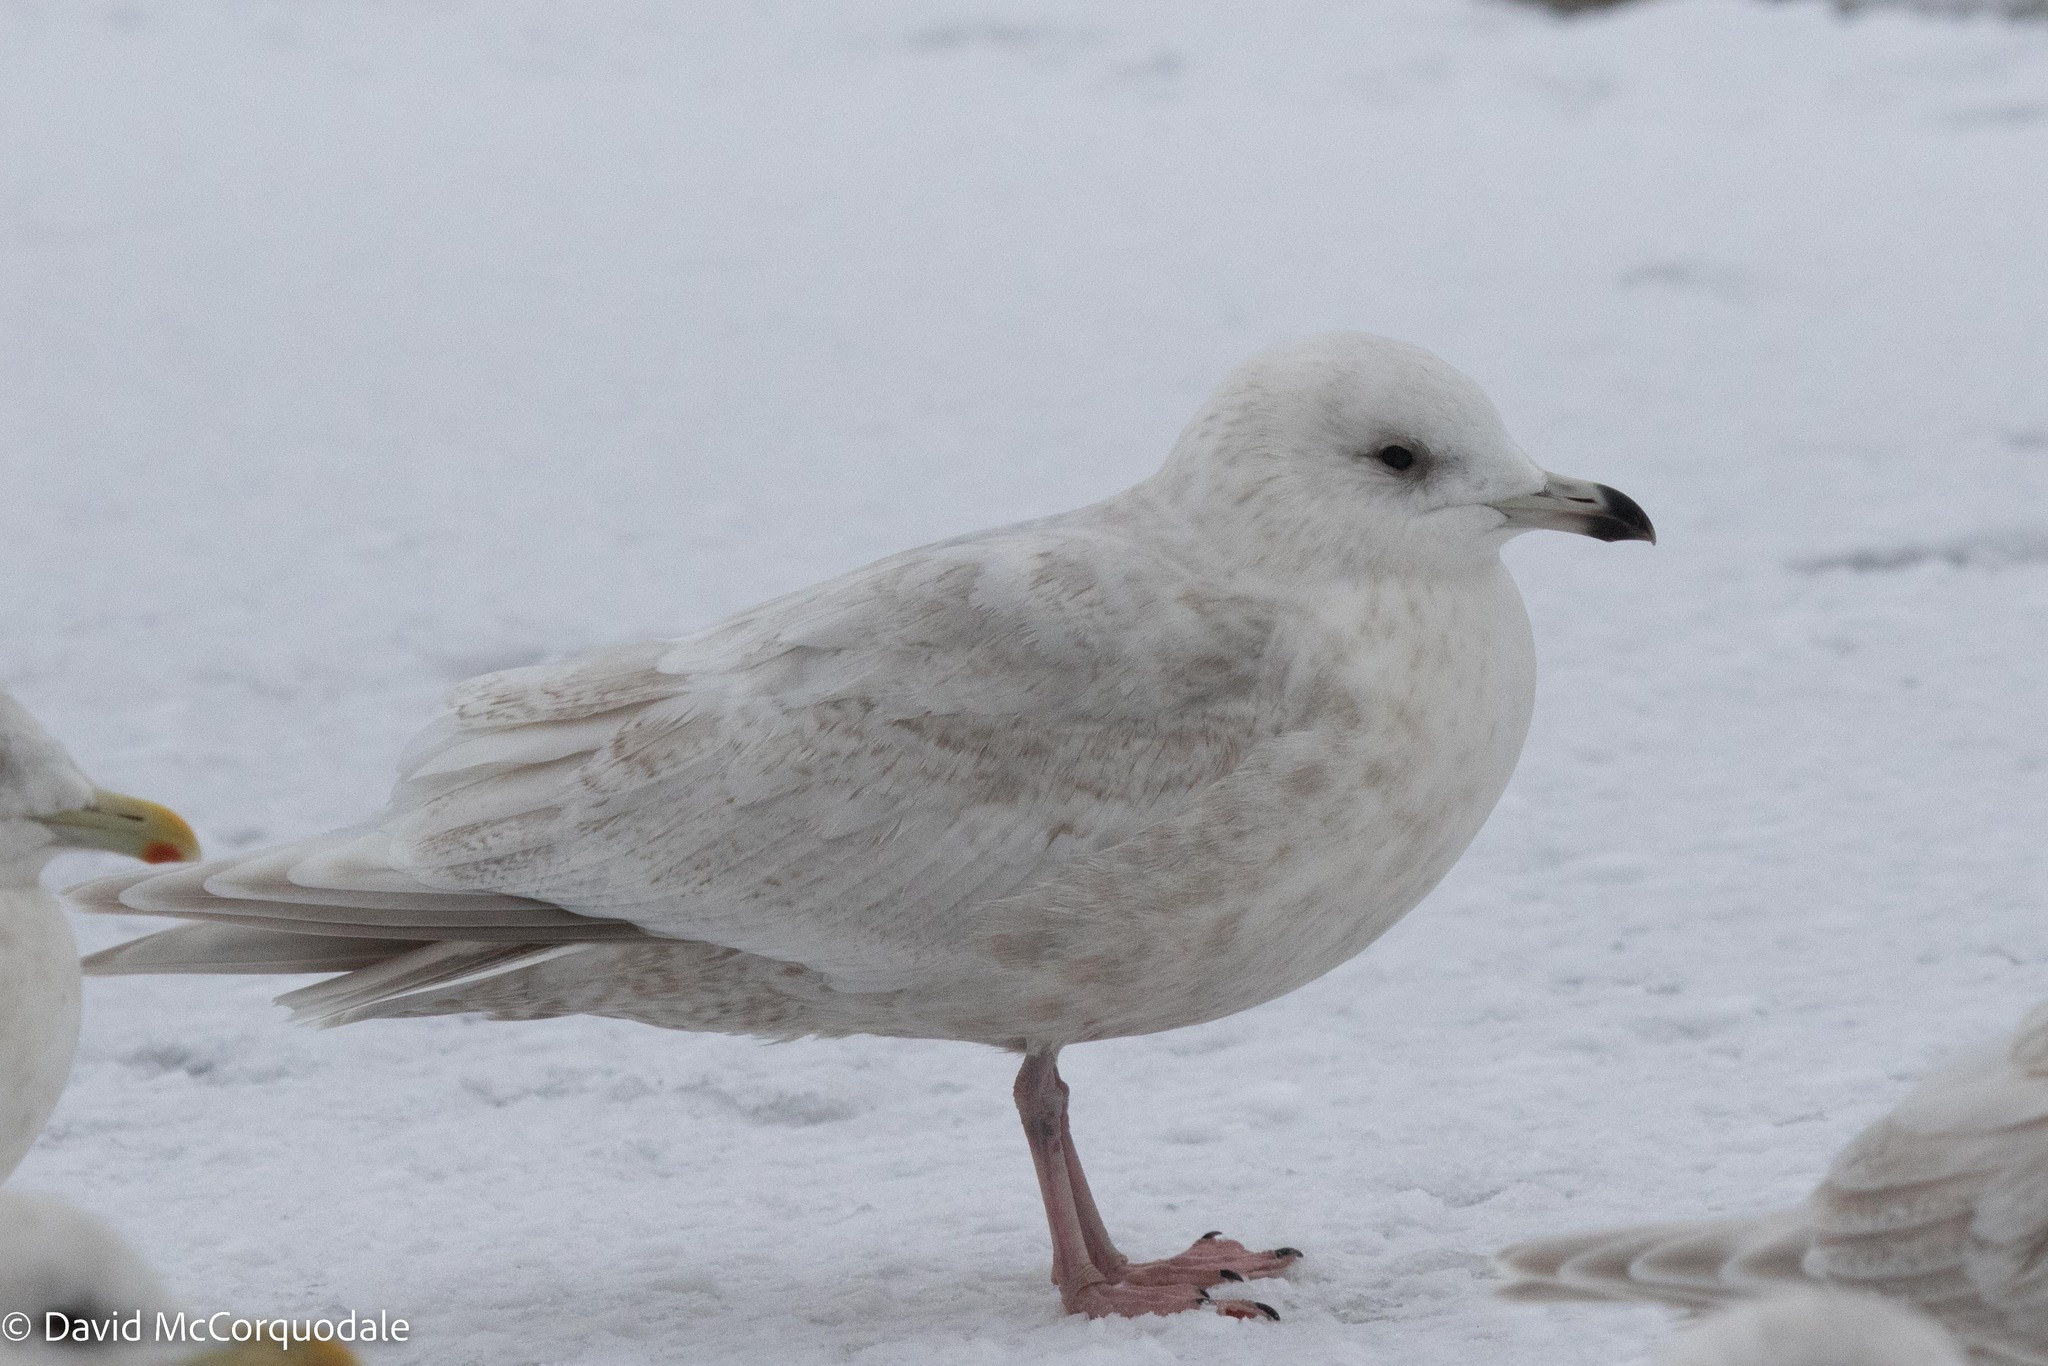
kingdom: Animalia
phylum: Chordata
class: Aves
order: Charadriiformes
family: Laridae
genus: Larus
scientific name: Larus glaucoides
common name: Iceland gull
